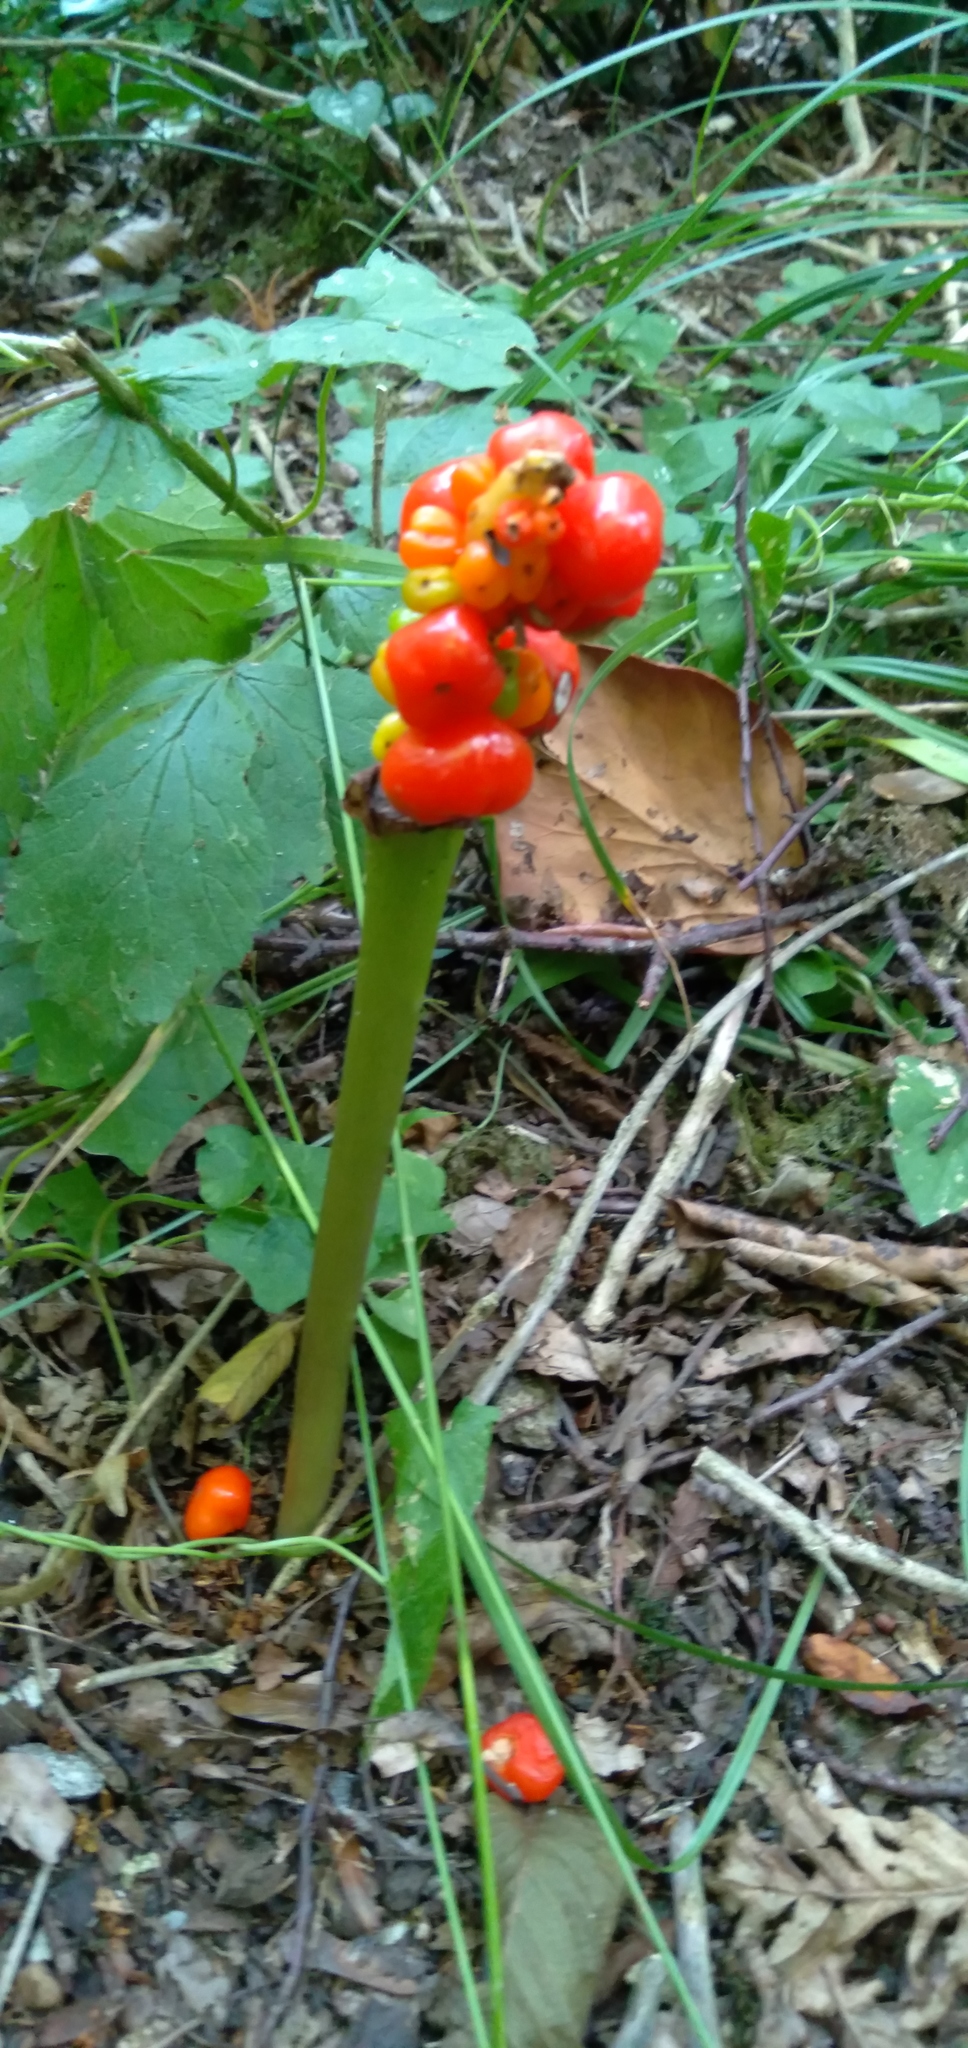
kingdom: Plantae
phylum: Tracheophyta
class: Liliopsida
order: Alismatales
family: Araceae
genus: Arum
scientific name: Arum maculatum
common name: Lords-and-ladies
